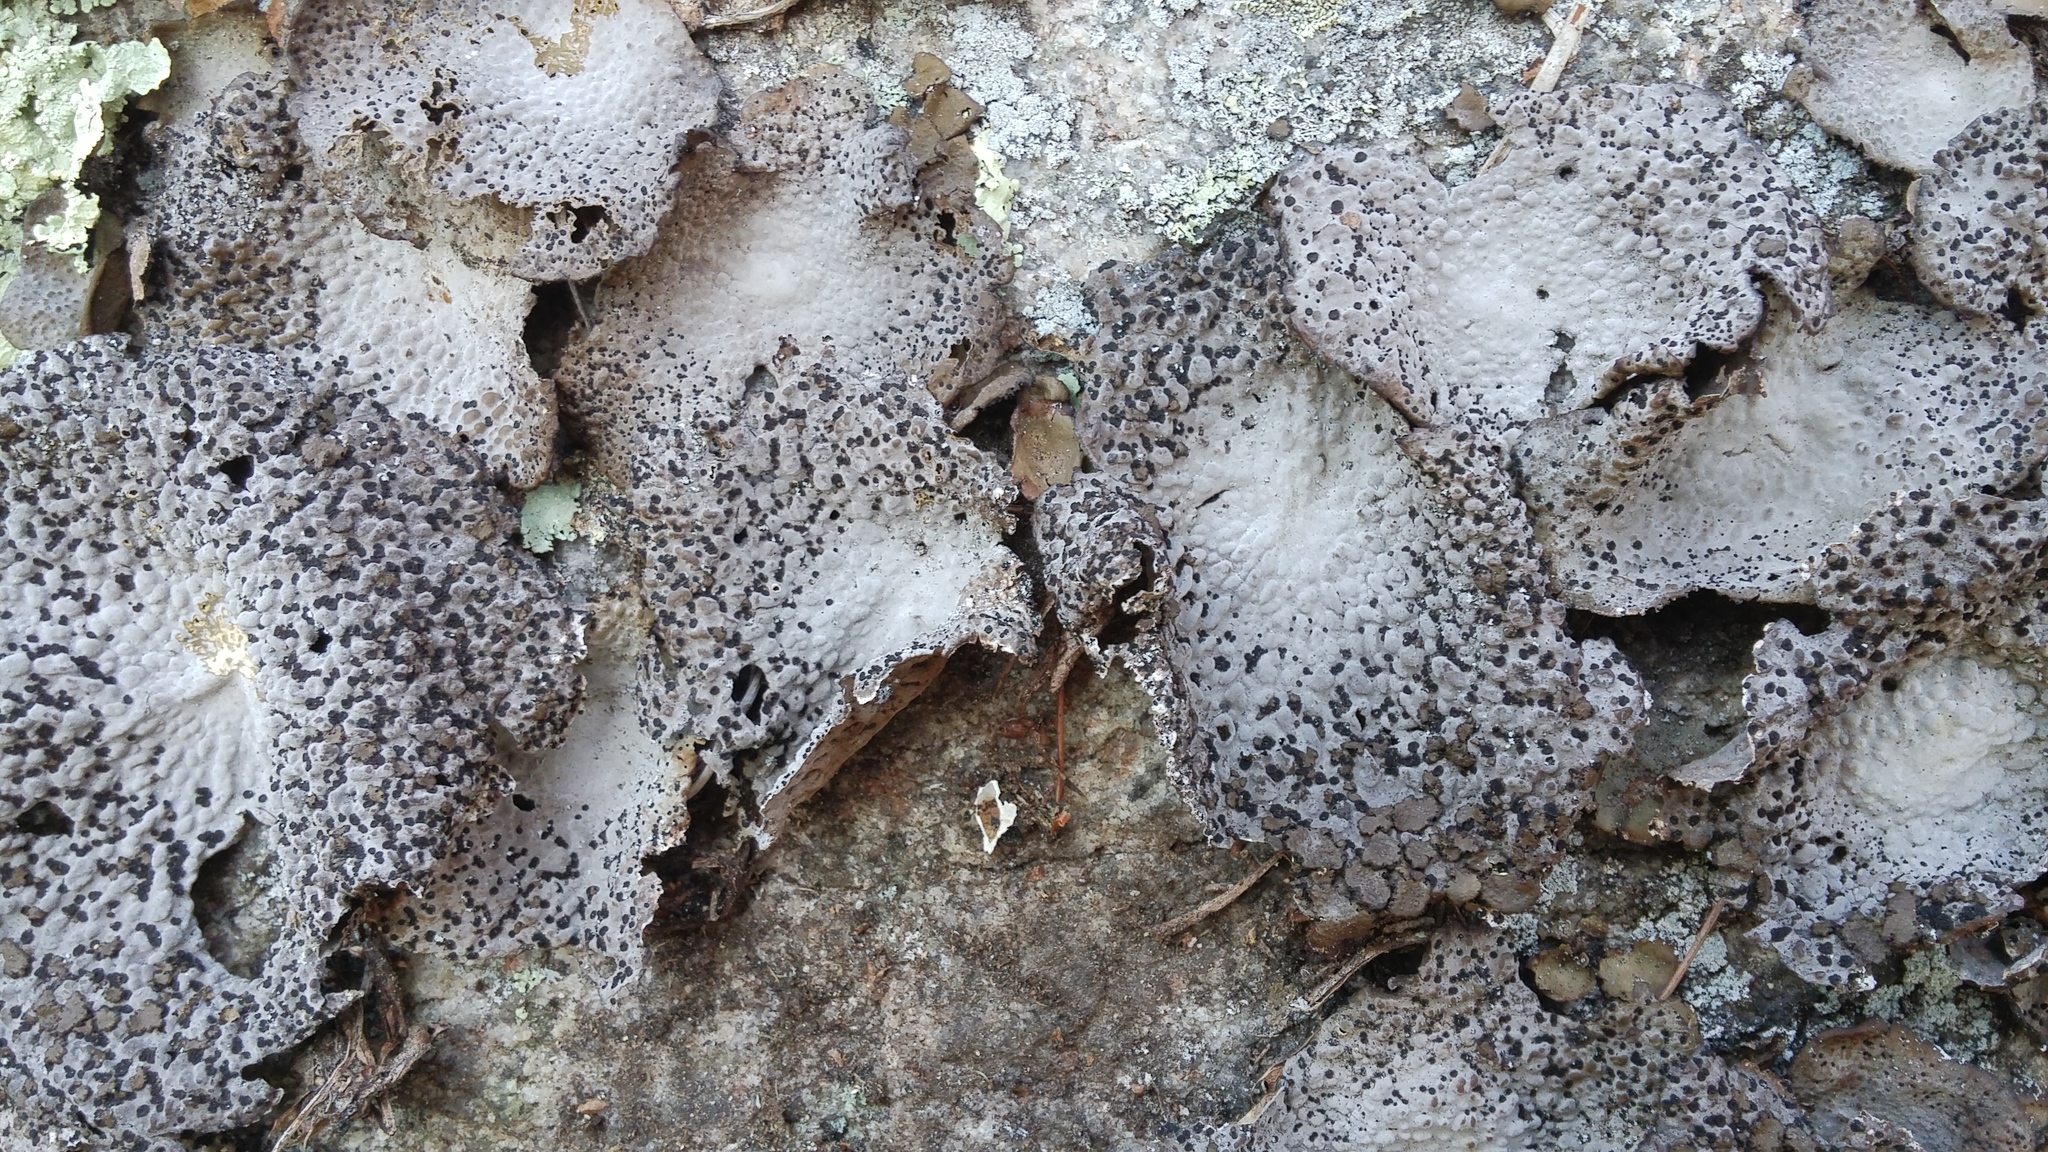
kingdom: Fungi
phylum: Ascomycota
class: Lecanoromycetes
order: Umbilicariales
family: Umbilicariaceae
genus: Lasallia
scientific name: Lasallia papulosa
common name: Common toadskin lichen
